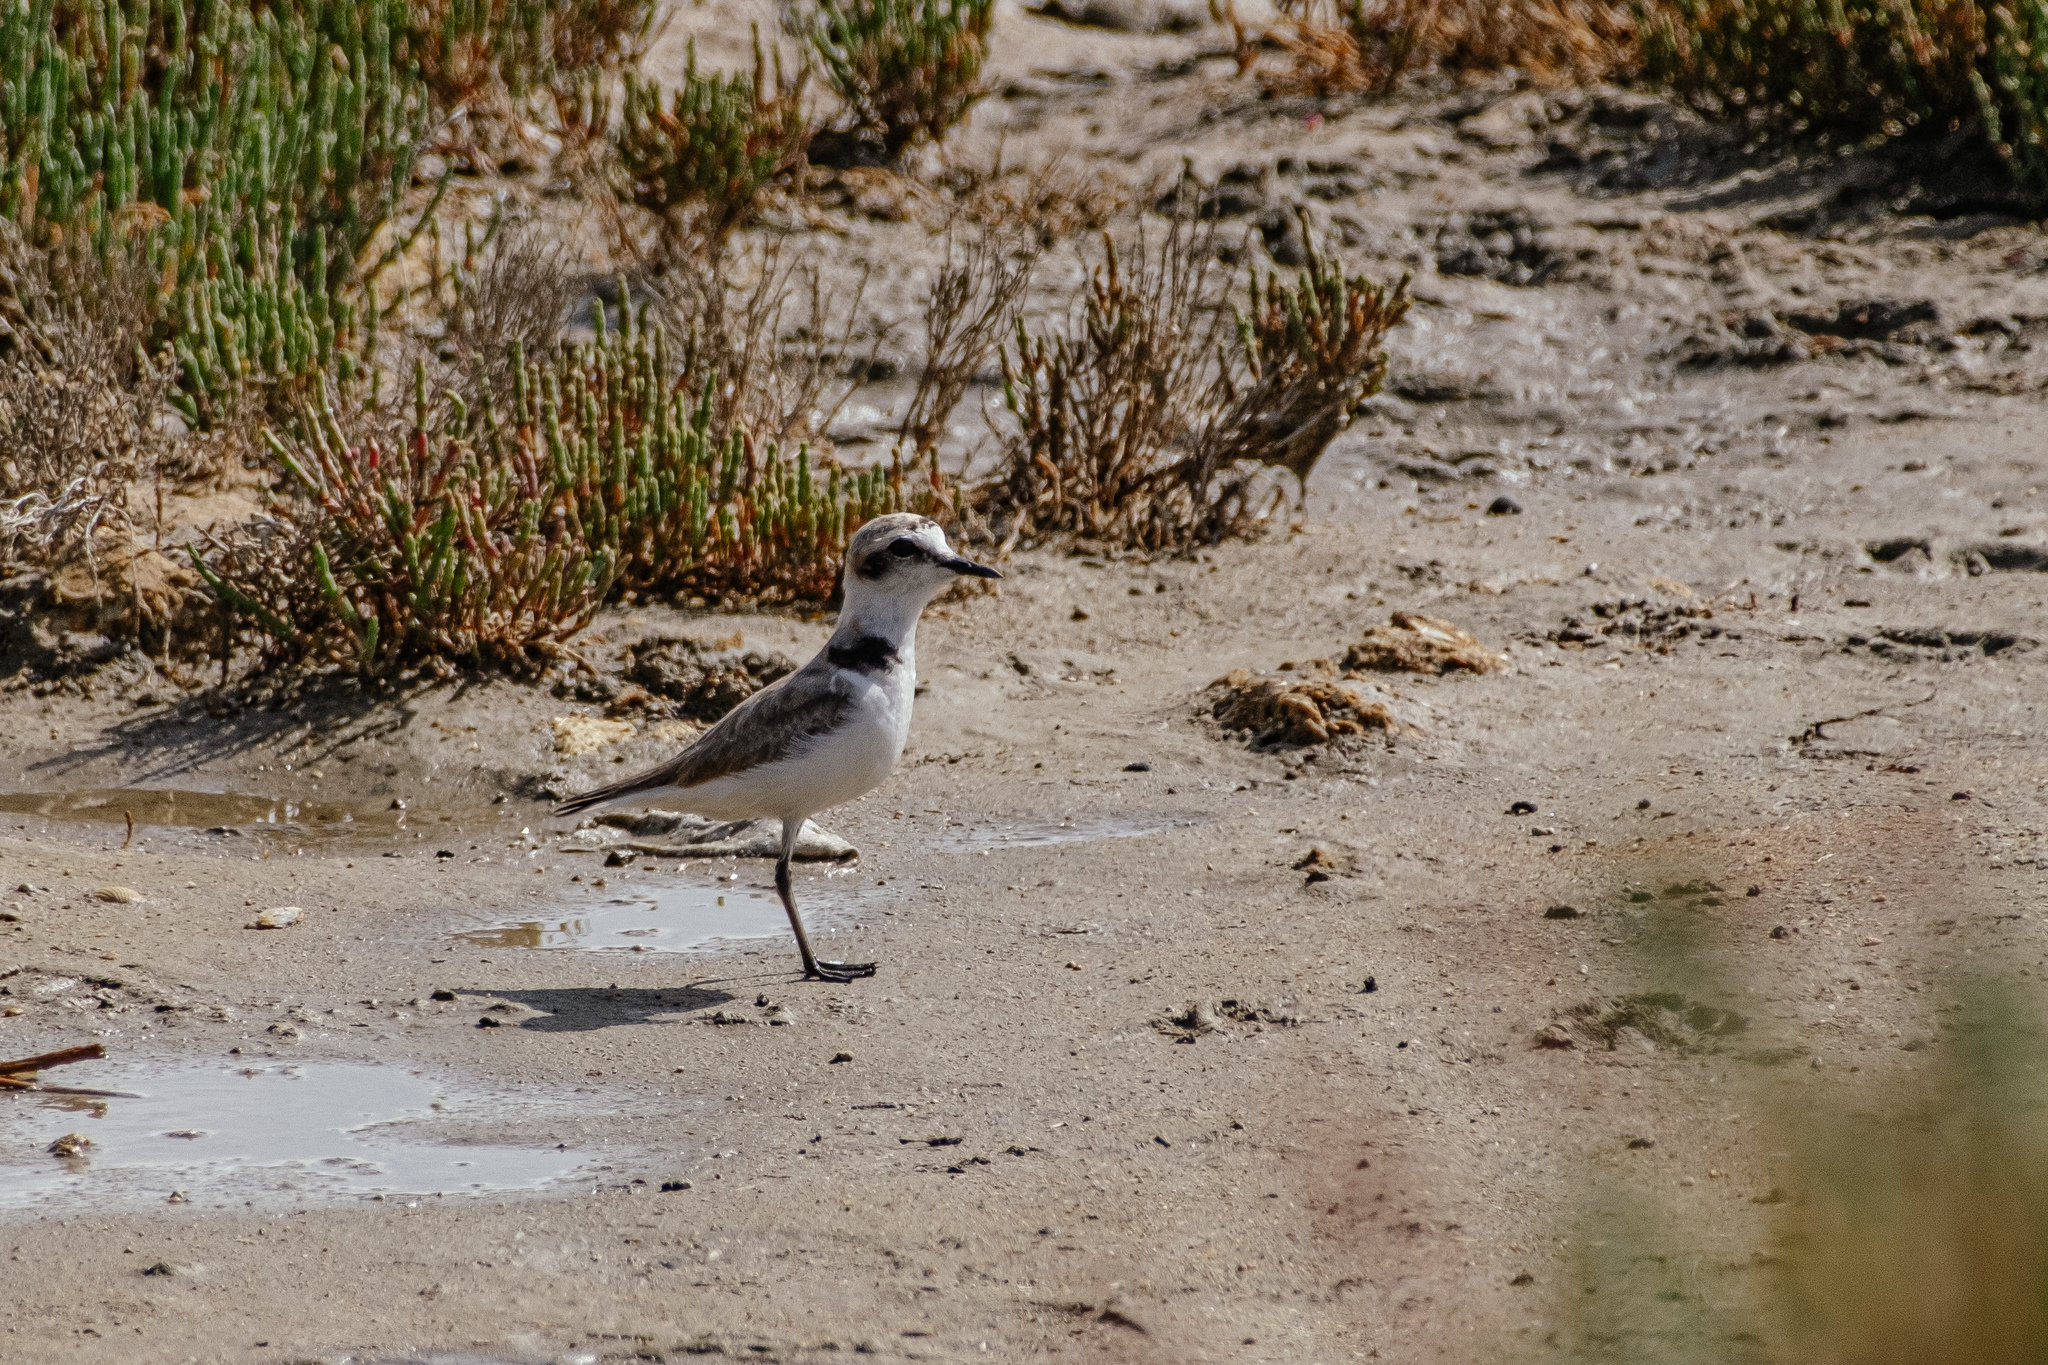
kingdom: Animalia
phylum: Chordata
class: Aves
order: Charadriiformes
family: Charadriidae
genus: Charadrius
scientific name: Charadrius alexandrinus
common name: Kentish plover
